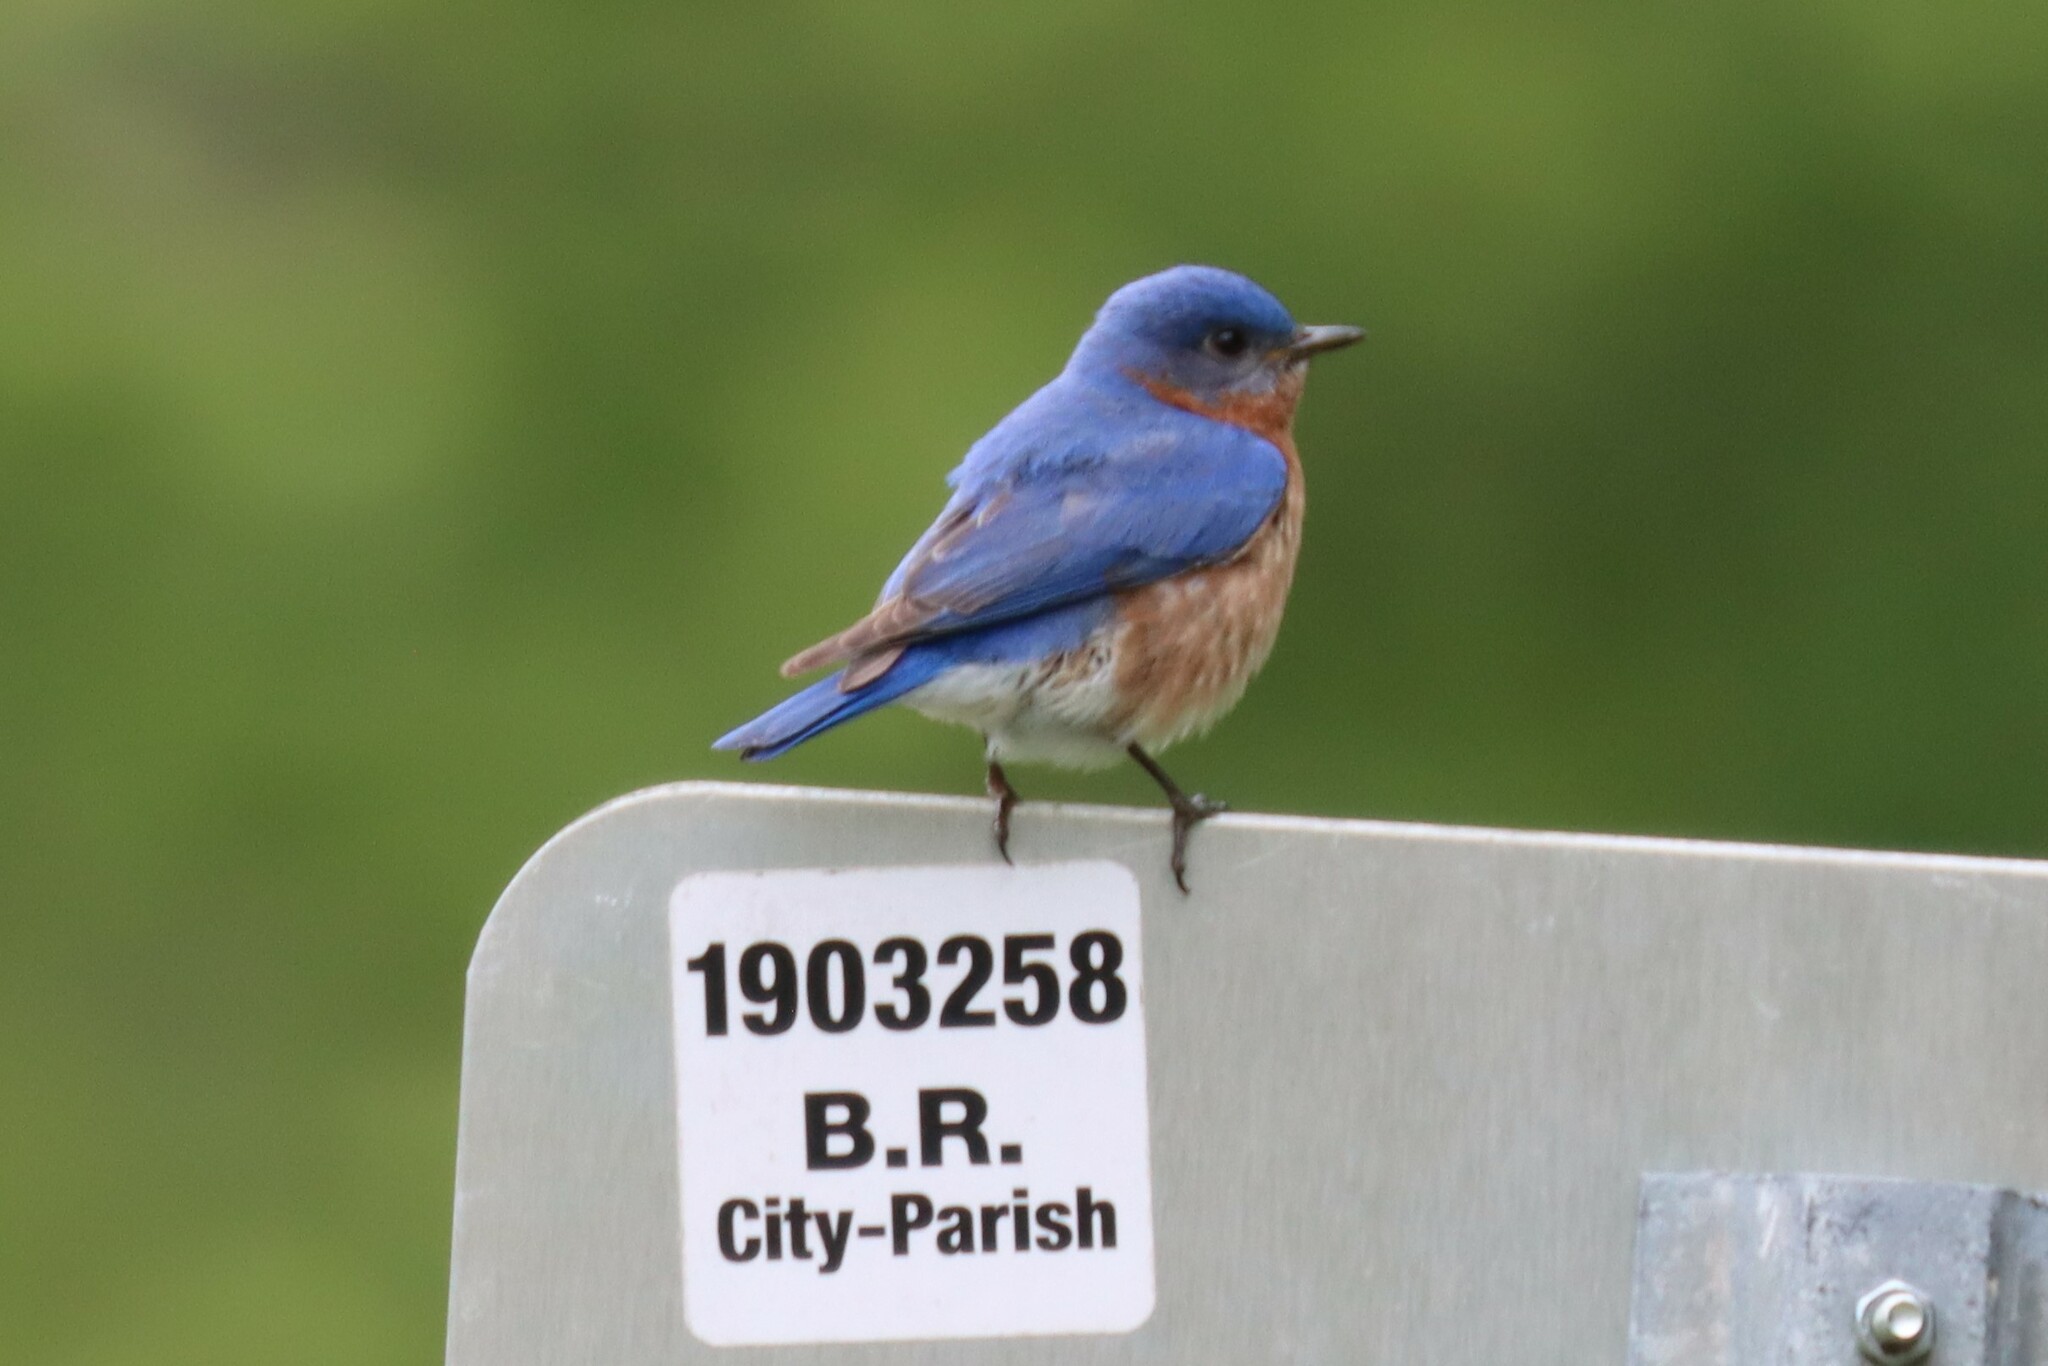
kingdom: Animalia
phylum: Chordata
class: Aves
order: Passeriformes
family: Turdidae
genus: Sialia
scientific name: Sialia sialis
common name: Eastern bluebird
